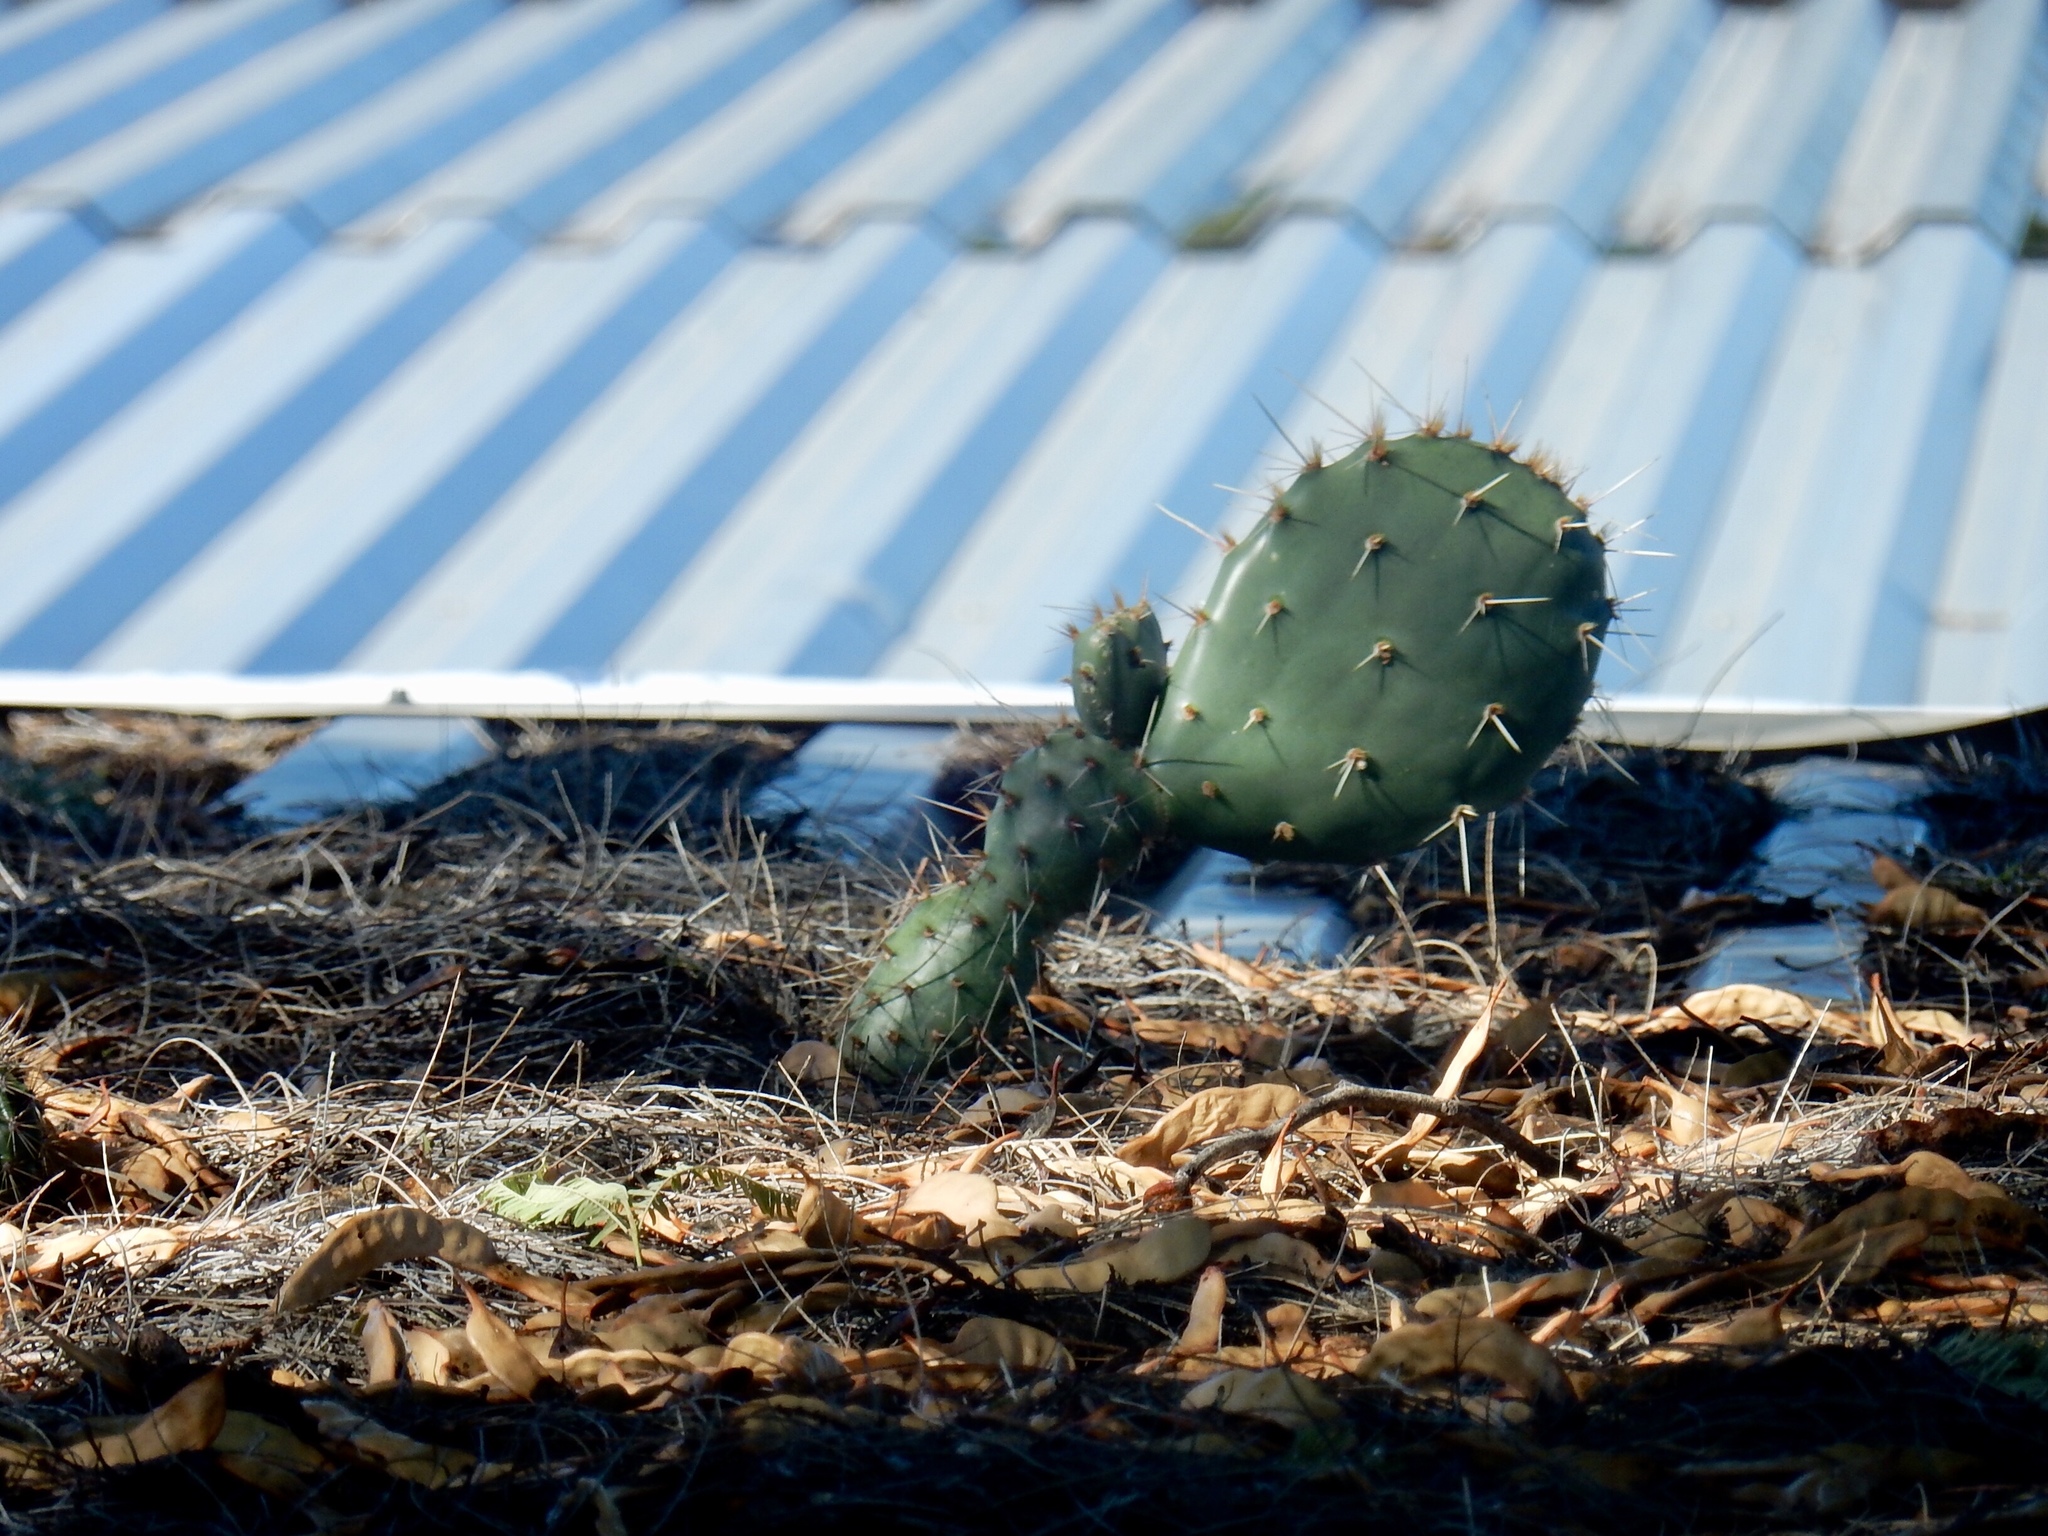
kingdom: Plantae
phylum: Tracheophyta
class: Magnoliopsida
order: Caryophyllales
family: Cactaceae
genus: Opuntia
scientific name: Opuntia engelmannii
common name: Cactus-apple
